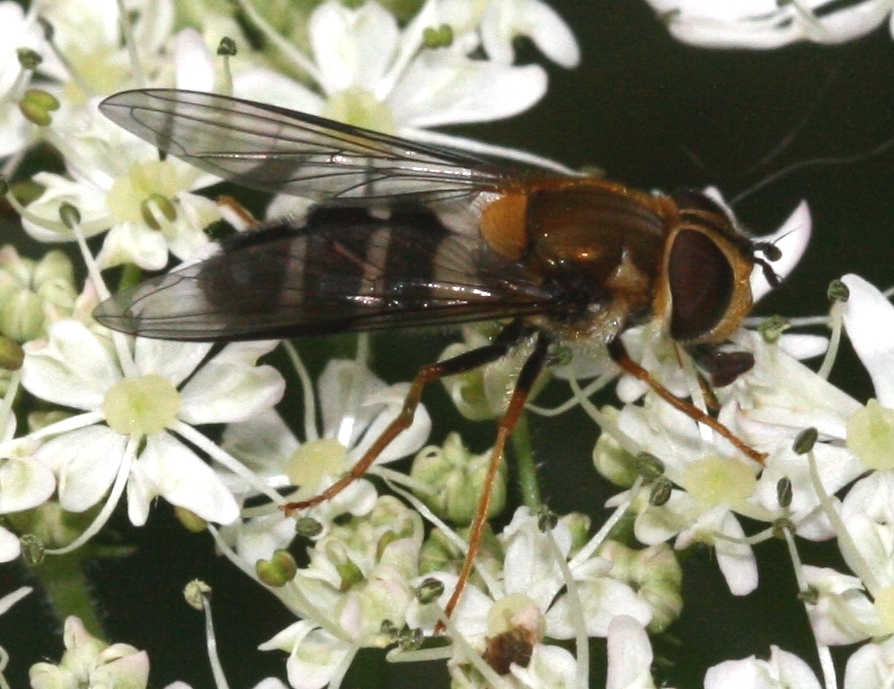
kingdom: Animalia
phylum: Arthropoda
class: Insecta
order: Diptera
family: Syrphidae
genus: Leucozona
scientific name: Leucozona glaucia
